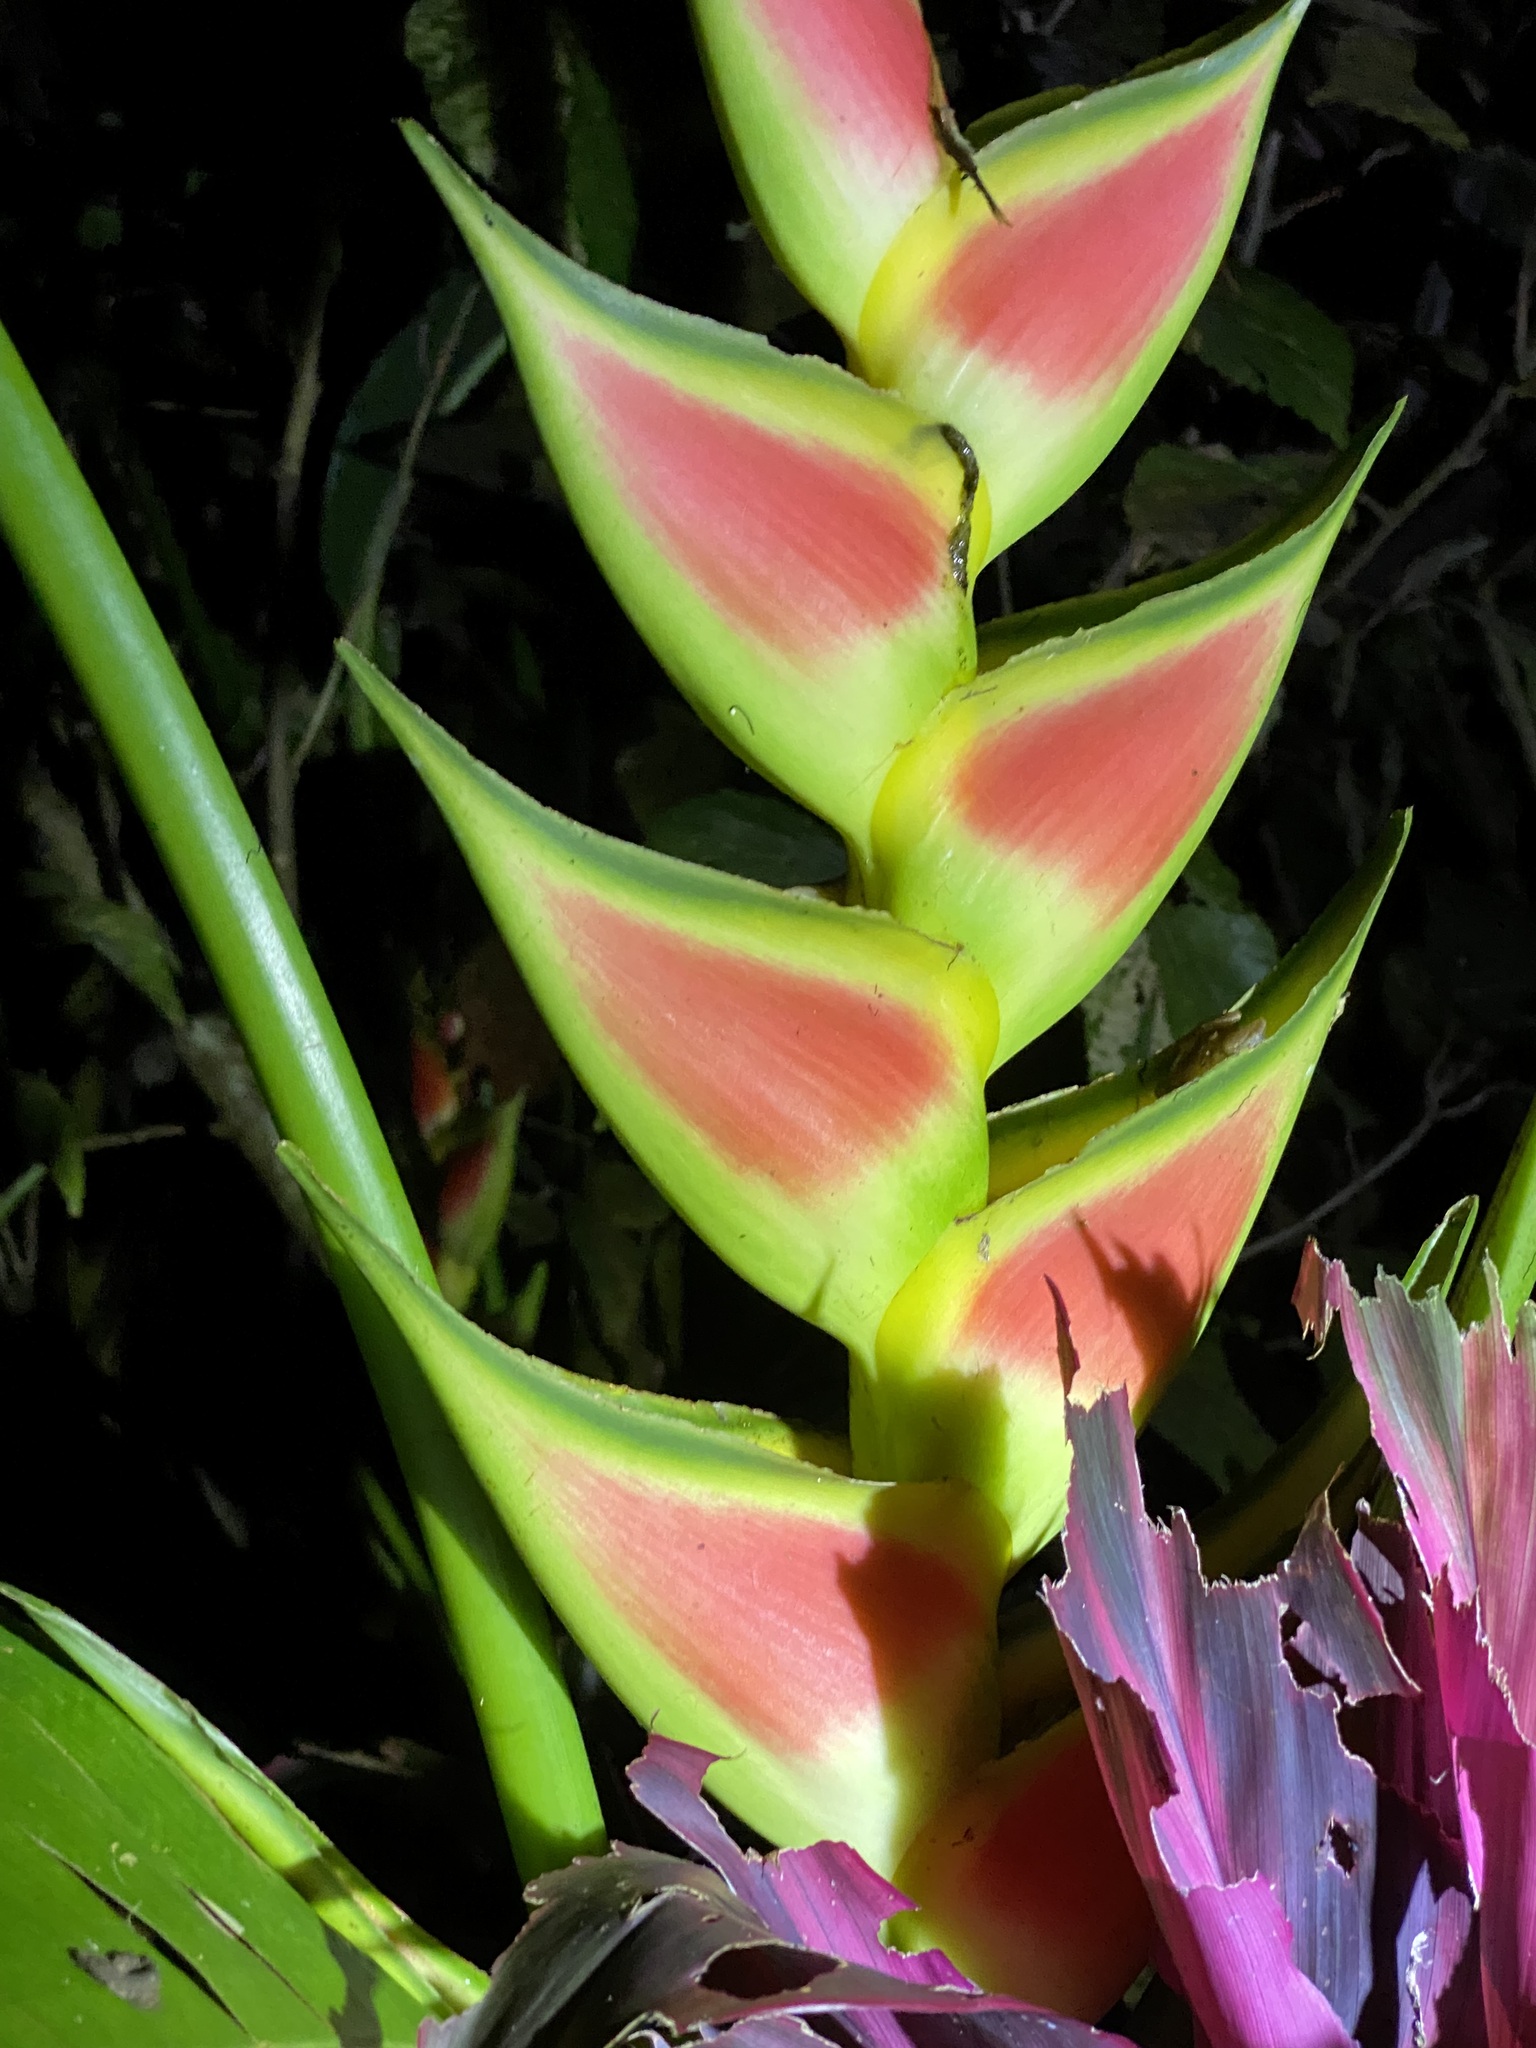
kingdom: Plantae
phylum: Tracheophyta
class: Liliopsida
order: Zingiberales
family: Heliconiaceae
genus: Heliconia
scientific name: Heliconia wagneriana
